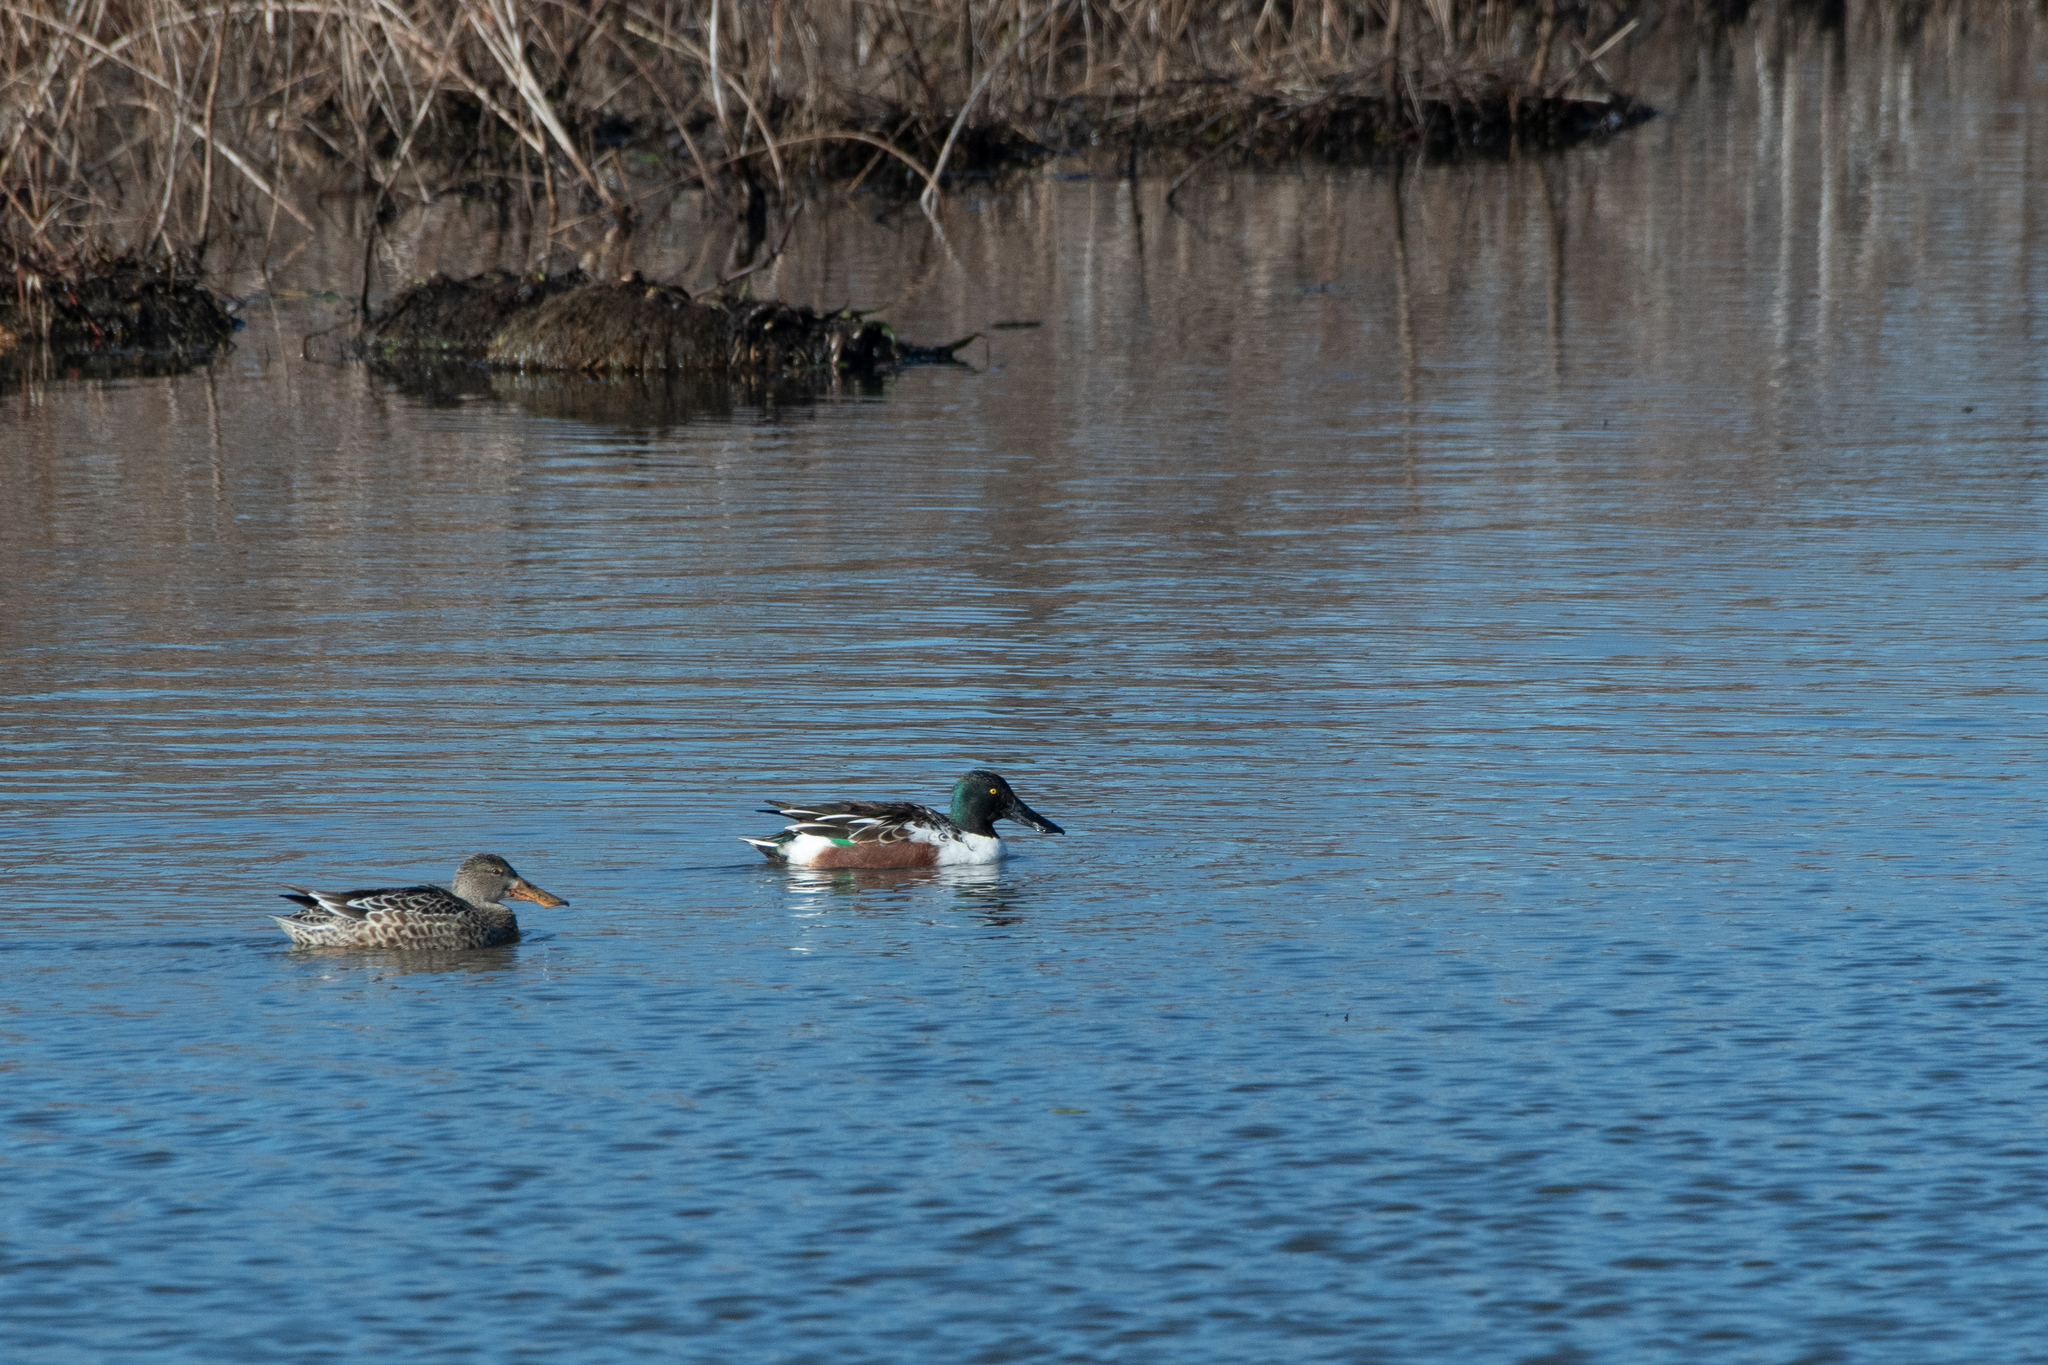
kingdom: Animalia
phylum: Chordata
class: Aves
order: Anseriformes
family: Anatidae
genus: Spatula
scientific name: Spatula clypeata
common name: Northern shoveler
